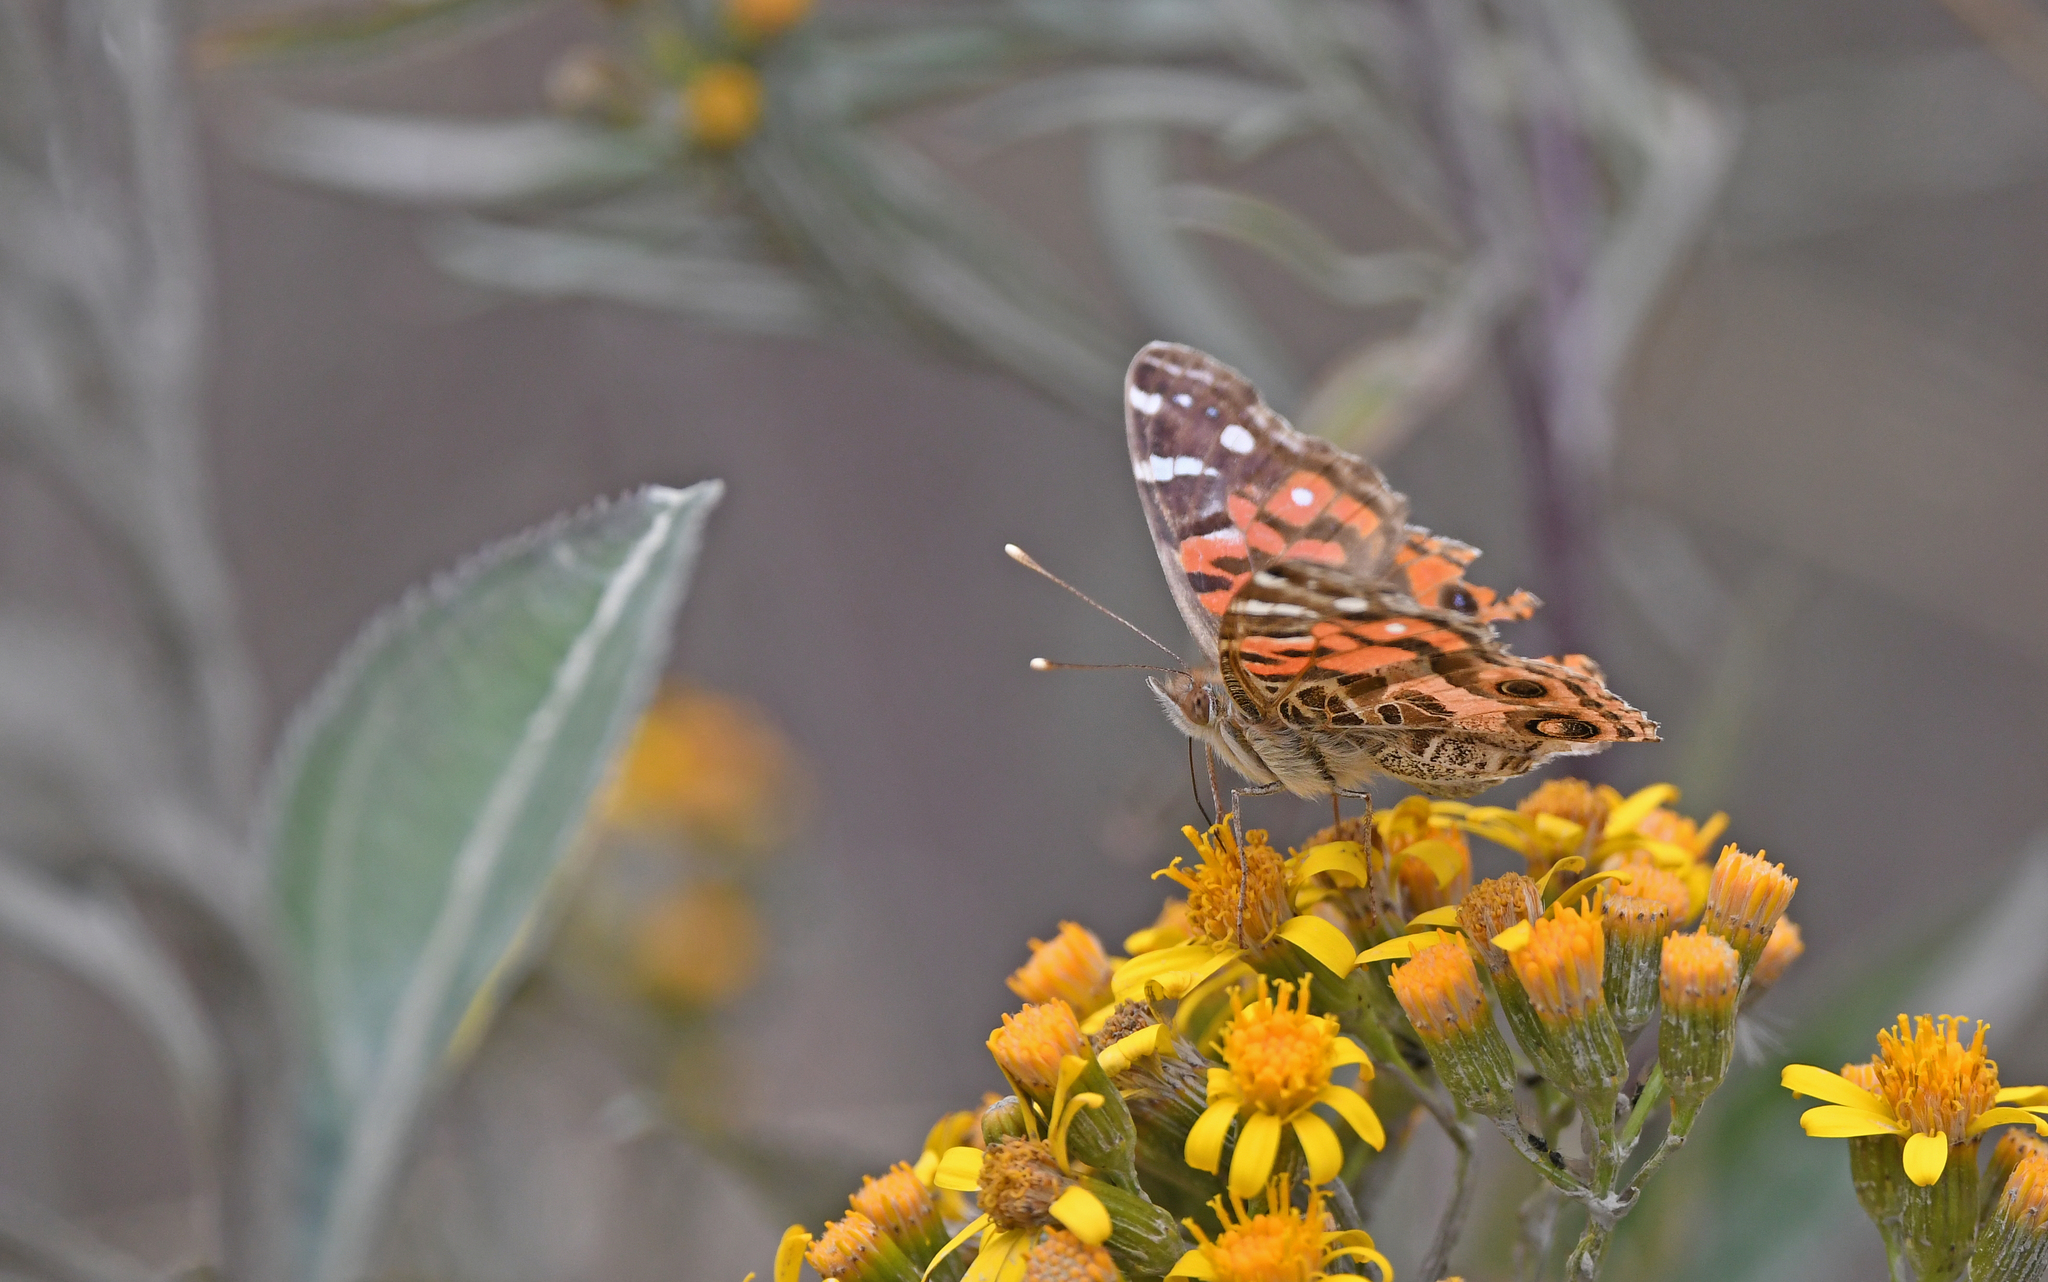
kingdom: Animalia
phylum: Arthropoda
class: Insecta
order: Lepidoptera
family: Nymphalidae
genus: Vanessa
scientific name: Vanessa braziliensis
